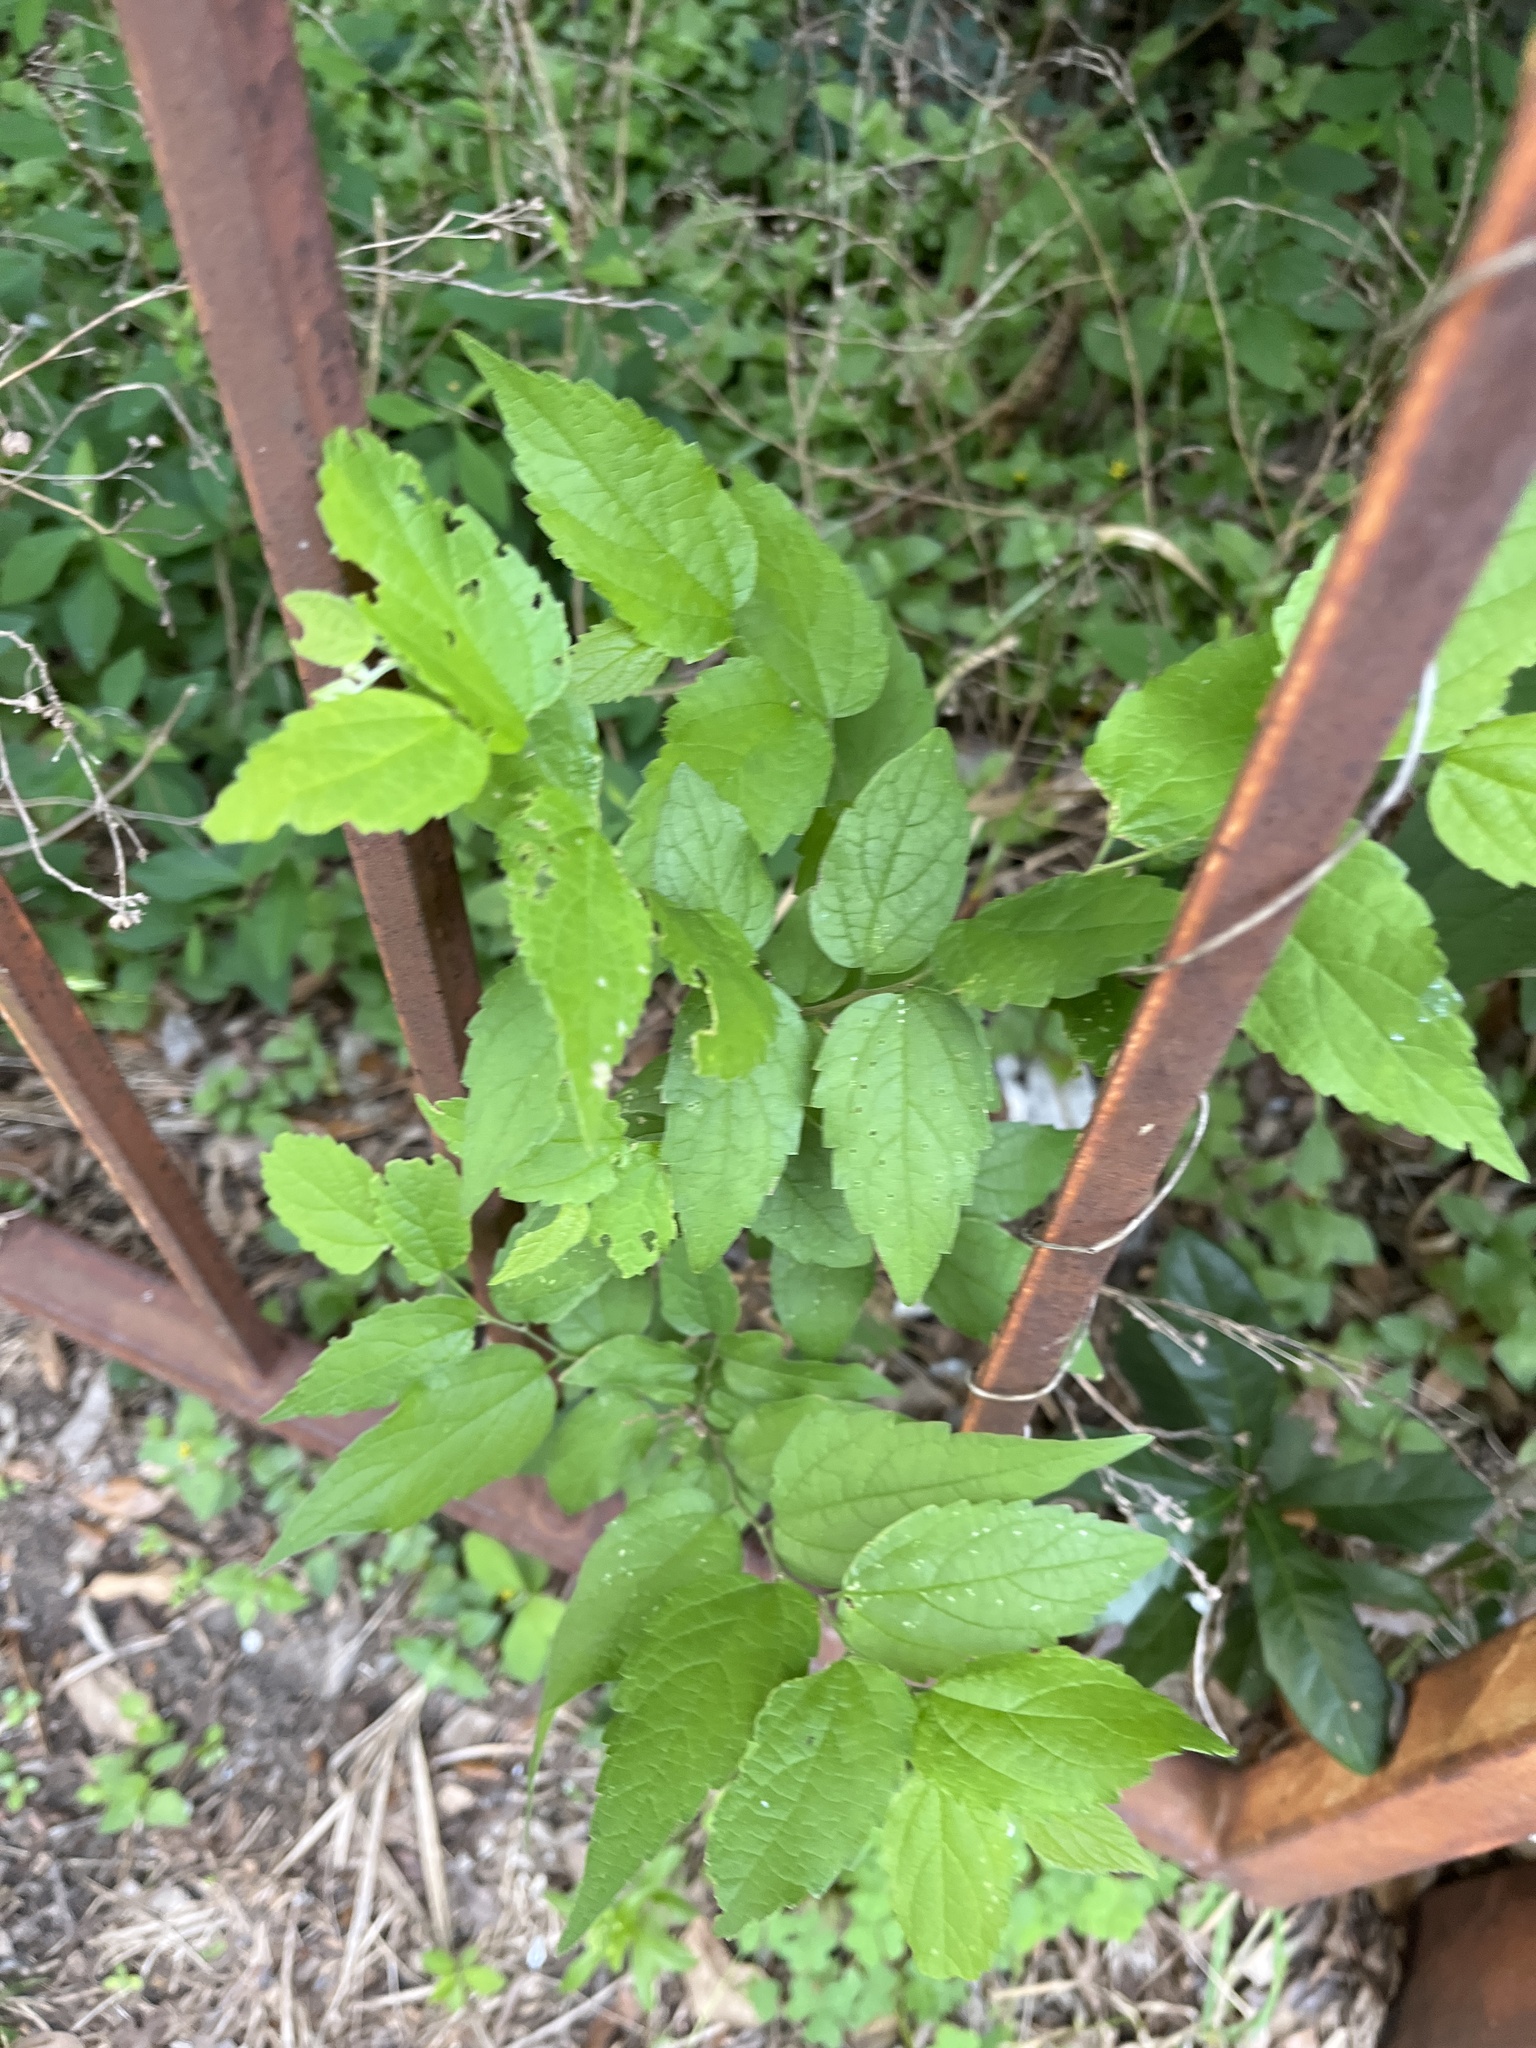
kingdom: Plantae
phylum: Tracheophyta
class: Magnoliopsida
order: Rosales
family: Cannabaceae
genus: Celtis
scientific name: Celtis laevigata
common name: Sugarberry
